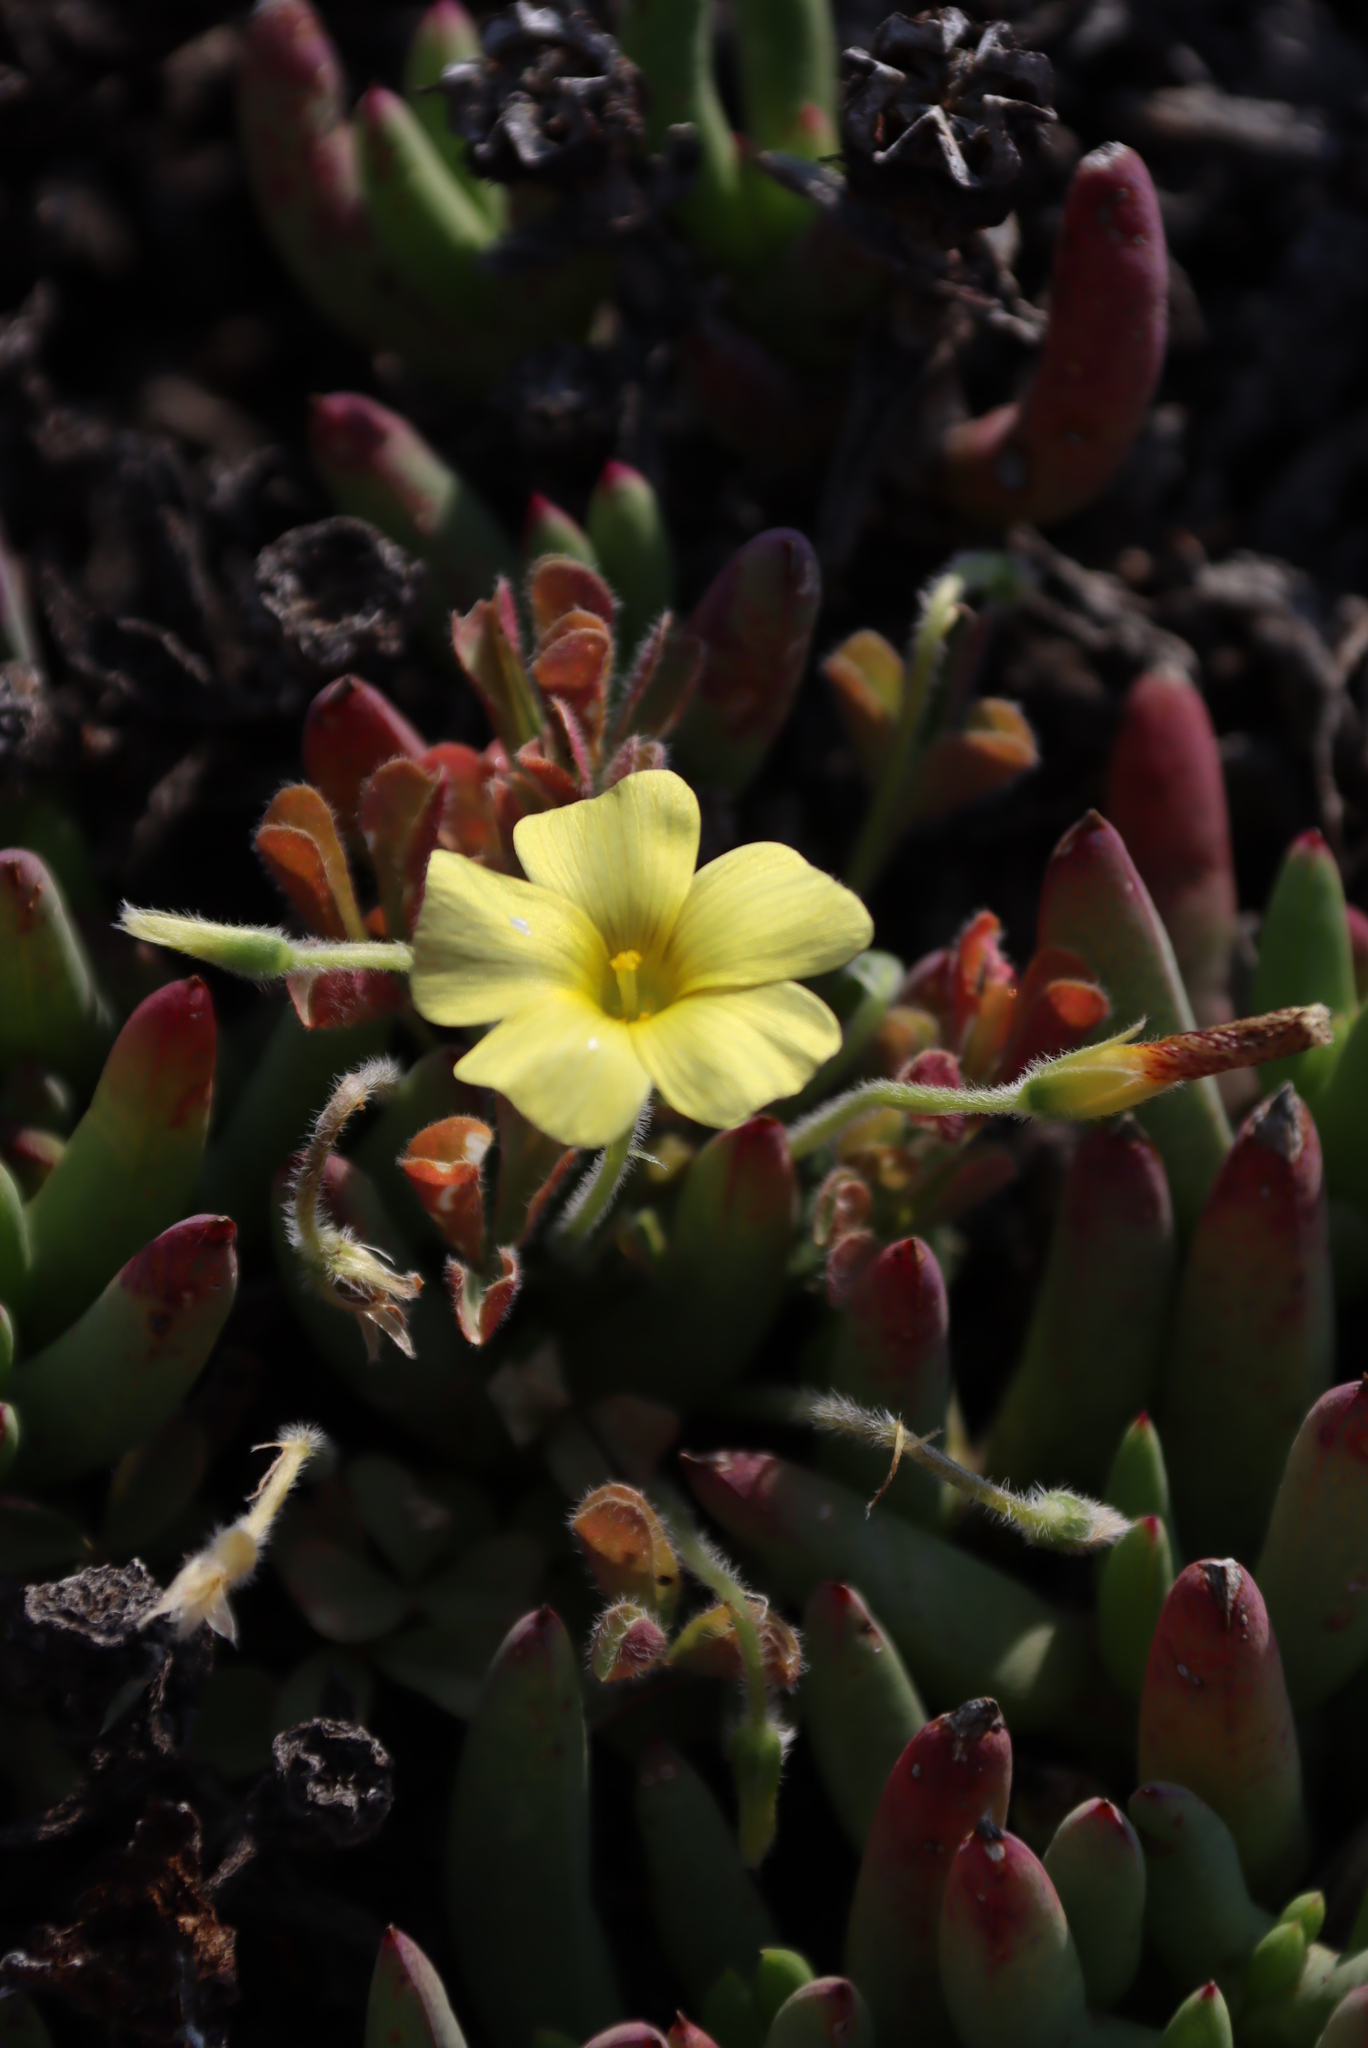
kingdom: Plantae
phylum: Tracheophyta
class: Magnoliopsida
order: Oxalidales
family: Oxalidaceae
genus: Oxalis
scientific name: Oxalis obtusa
